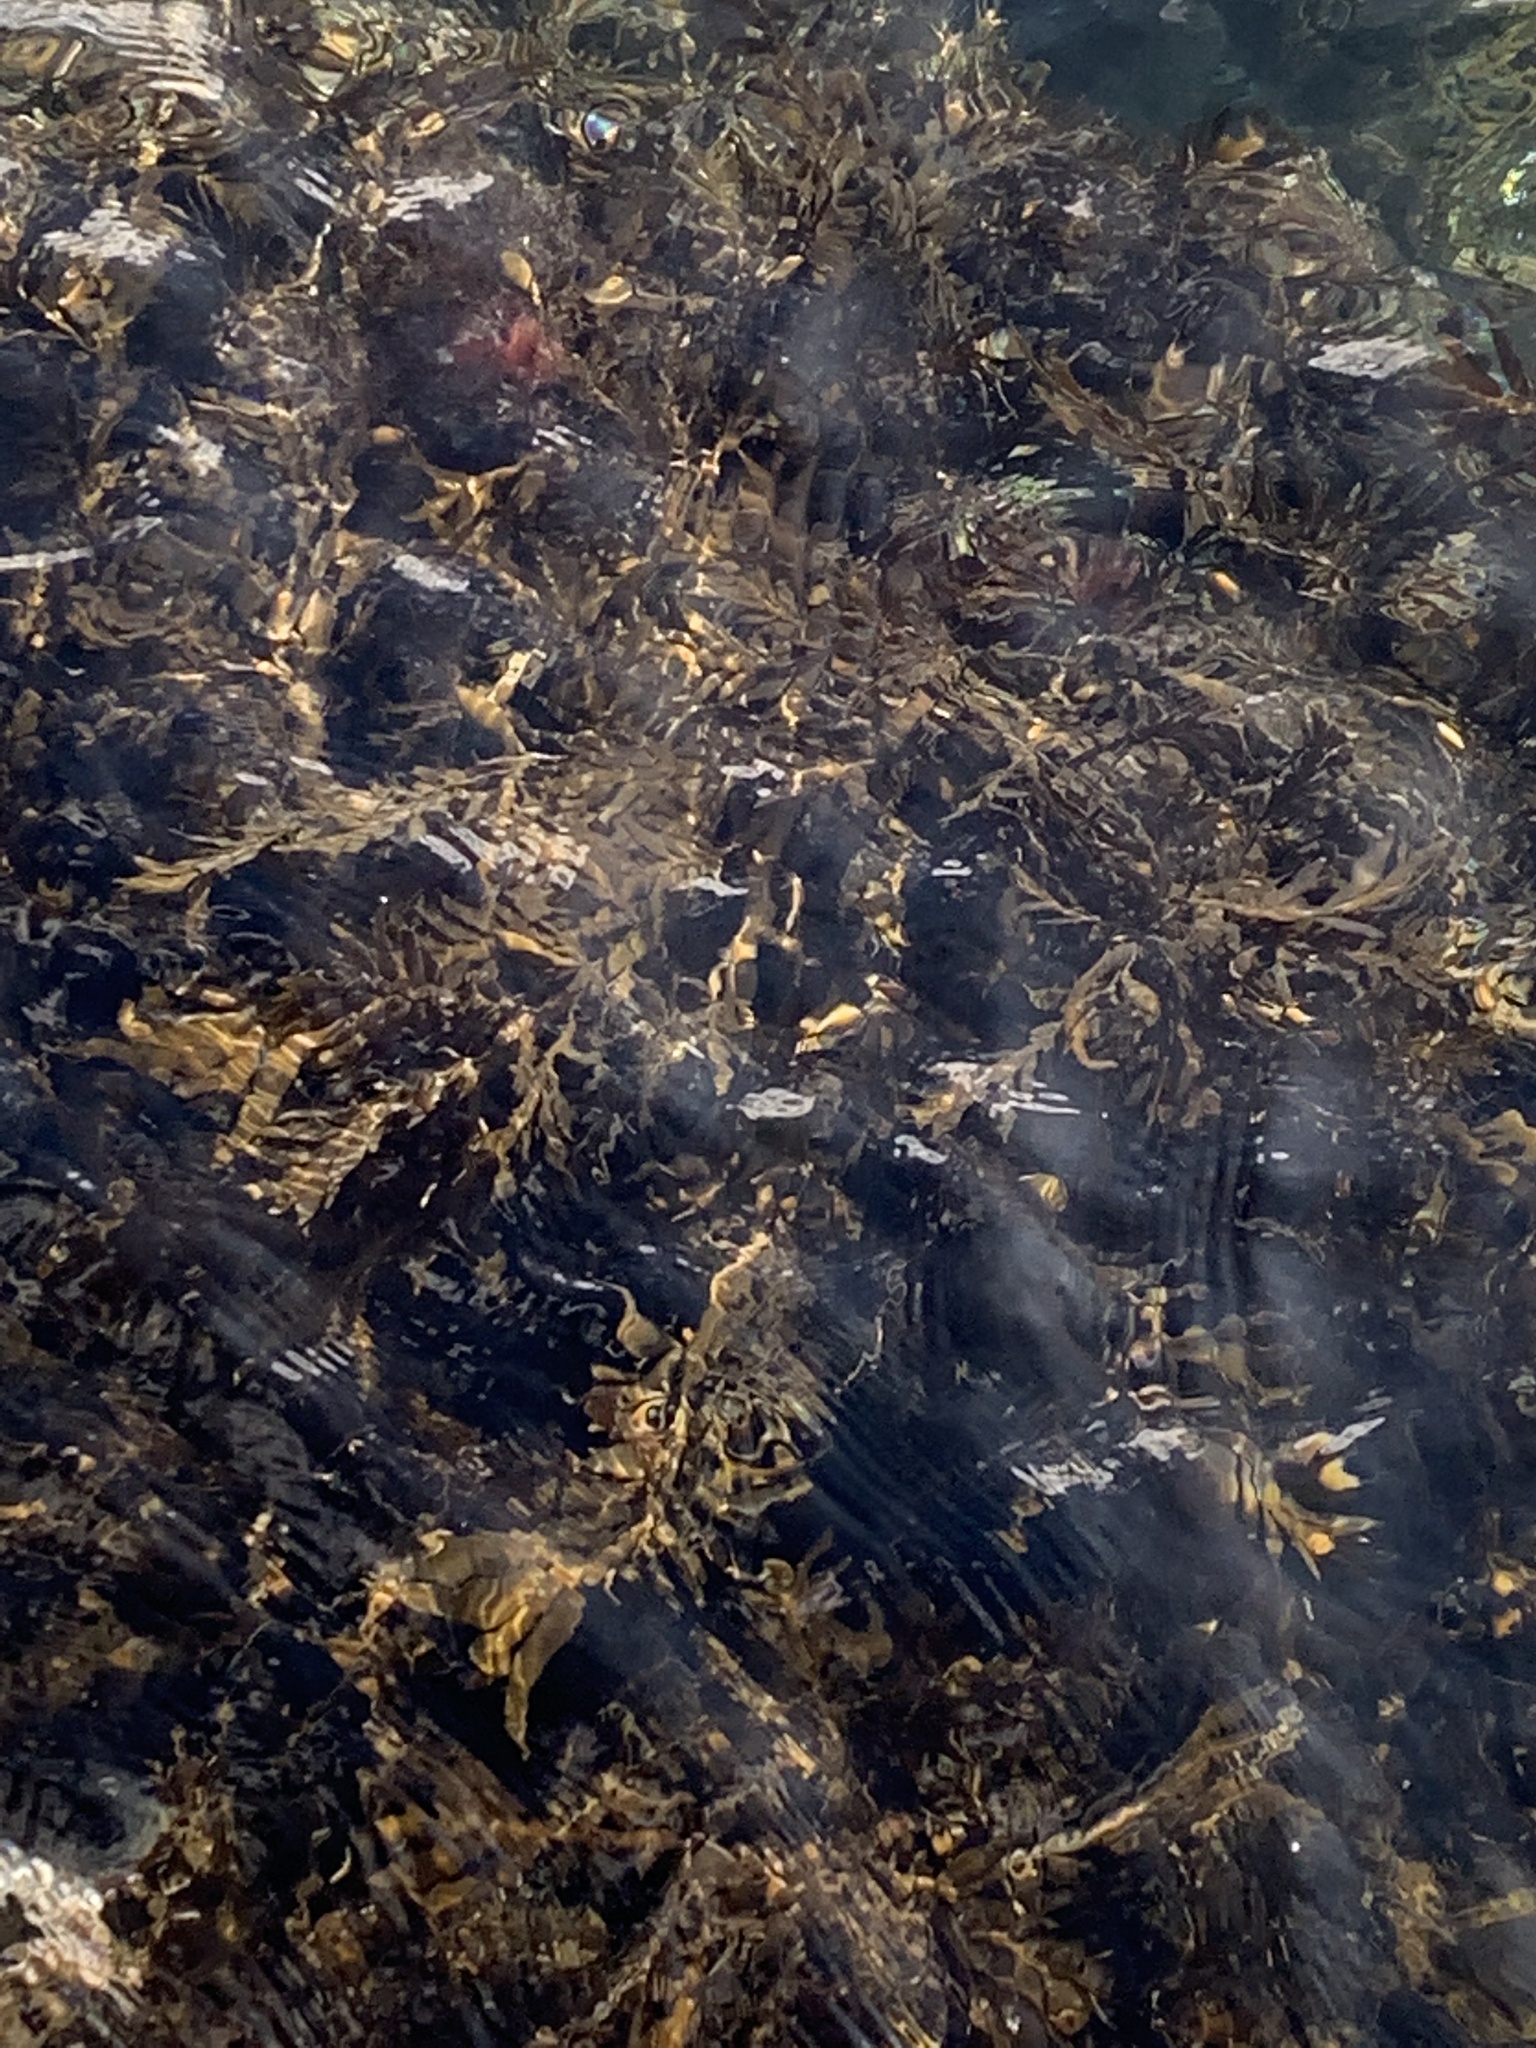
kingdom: Chromista
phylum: Ochrophyta
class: Phaeophyceae
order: Fucales
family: Sargassaceae
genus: Carpophyllum
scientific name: Carpophyllum maschalocarpum
